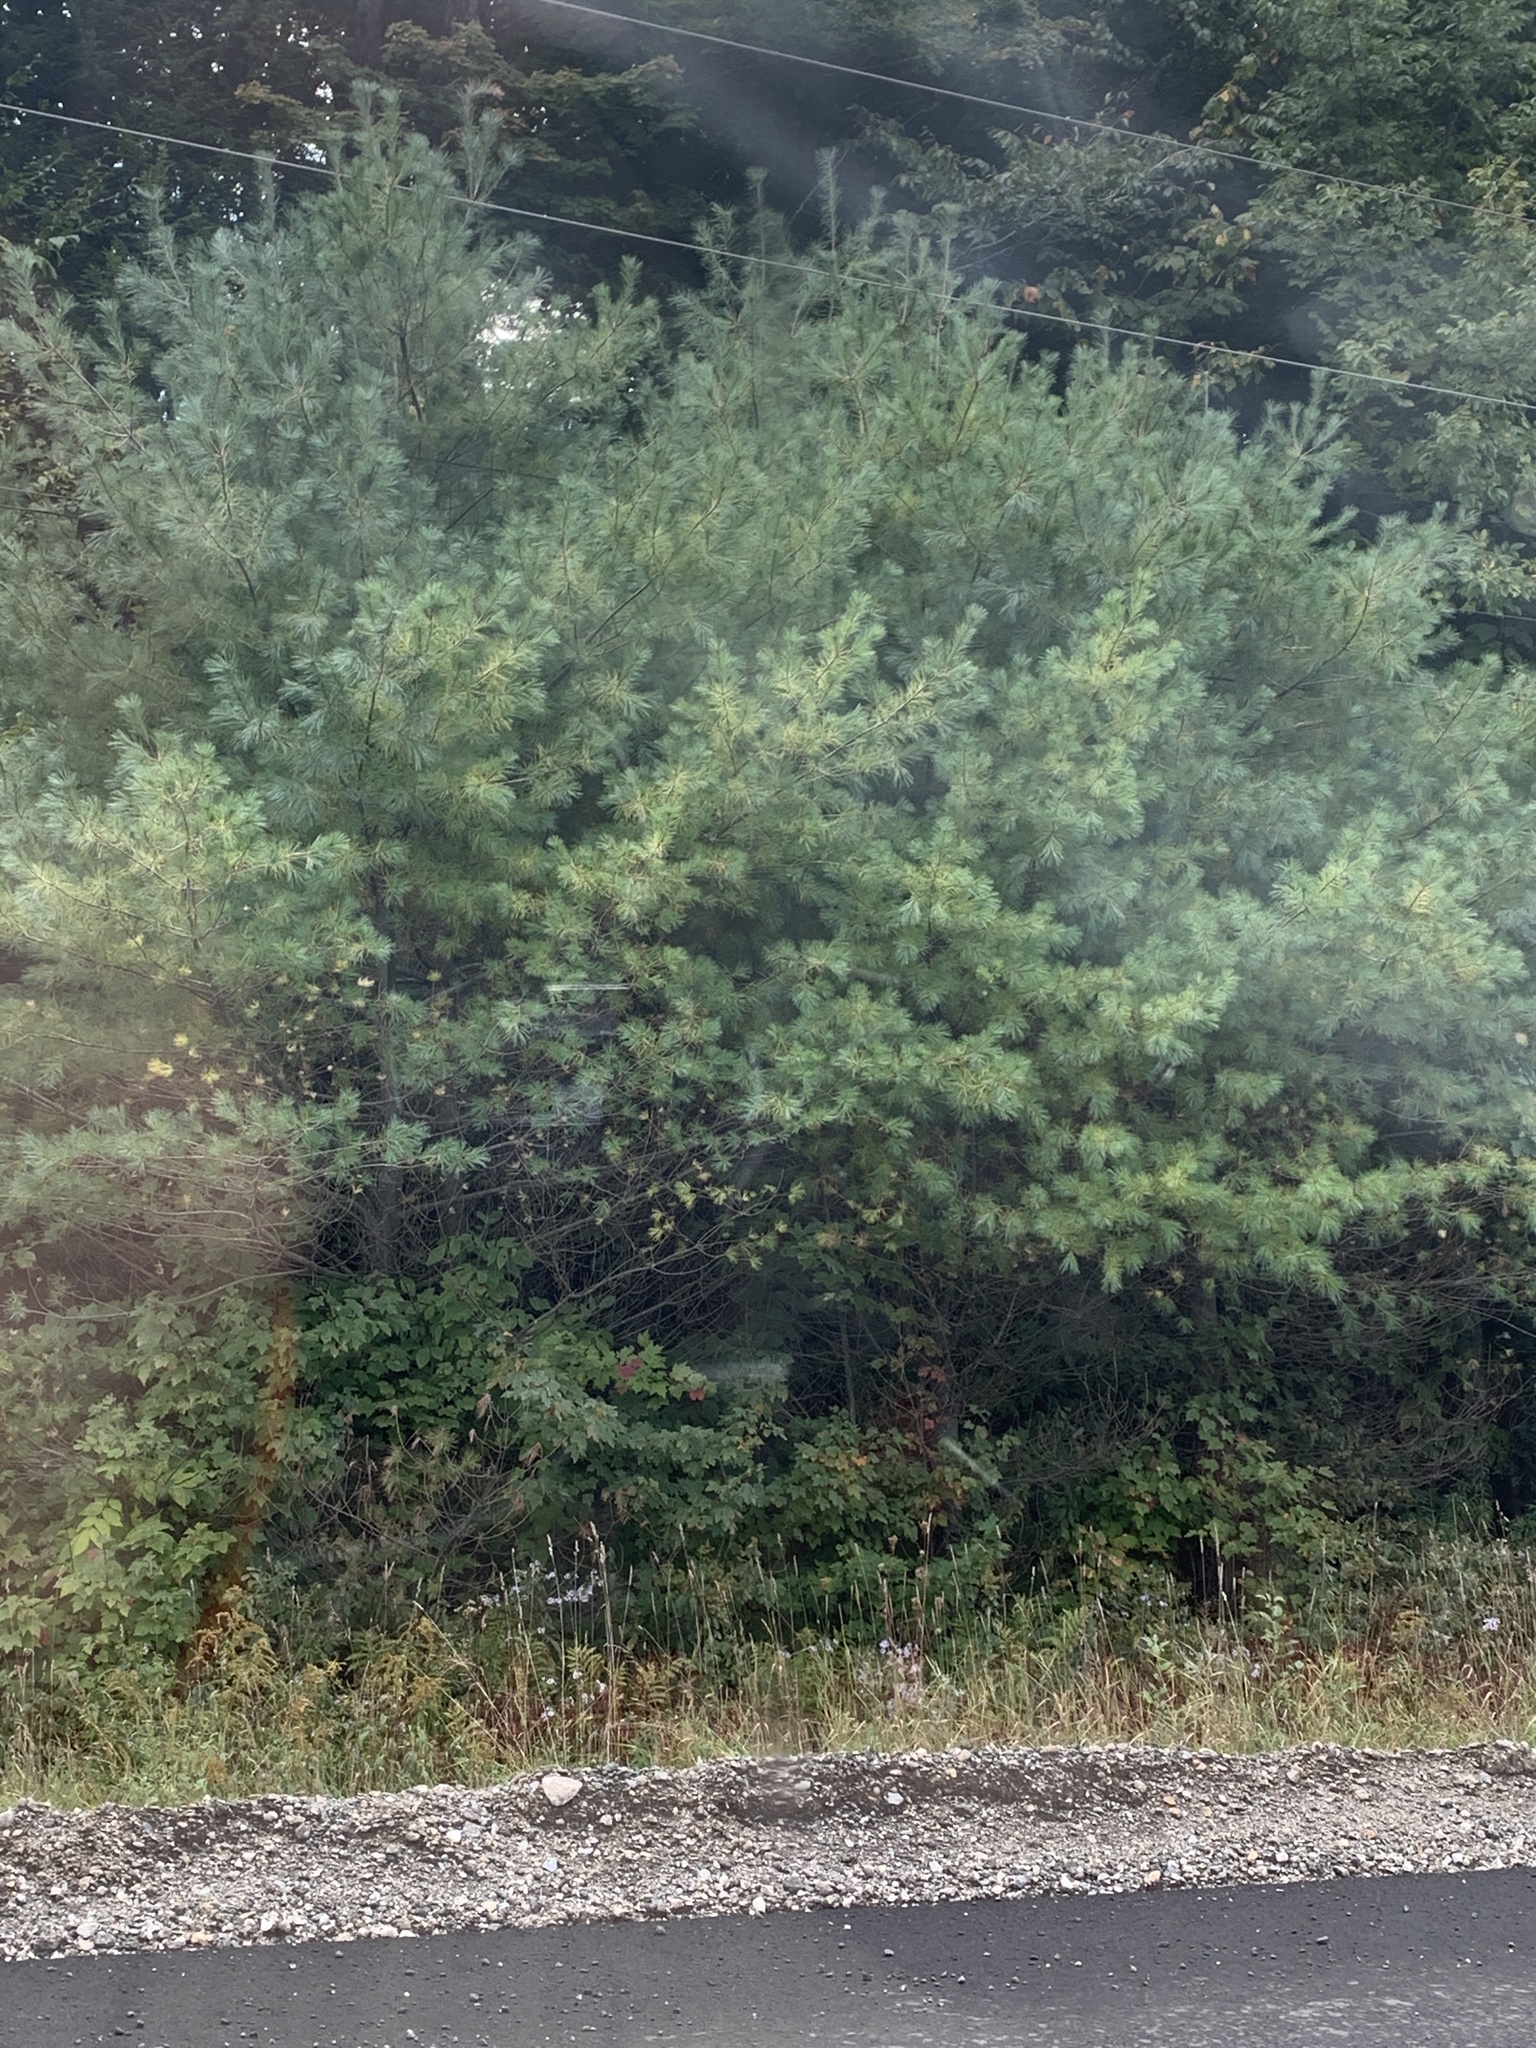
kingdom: Plantae
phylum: Tracheophyta
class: Pinopsida
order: Pinales
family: Pinaceae
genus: Pinus
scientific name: Pinus strobus
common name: Weymouth pine
